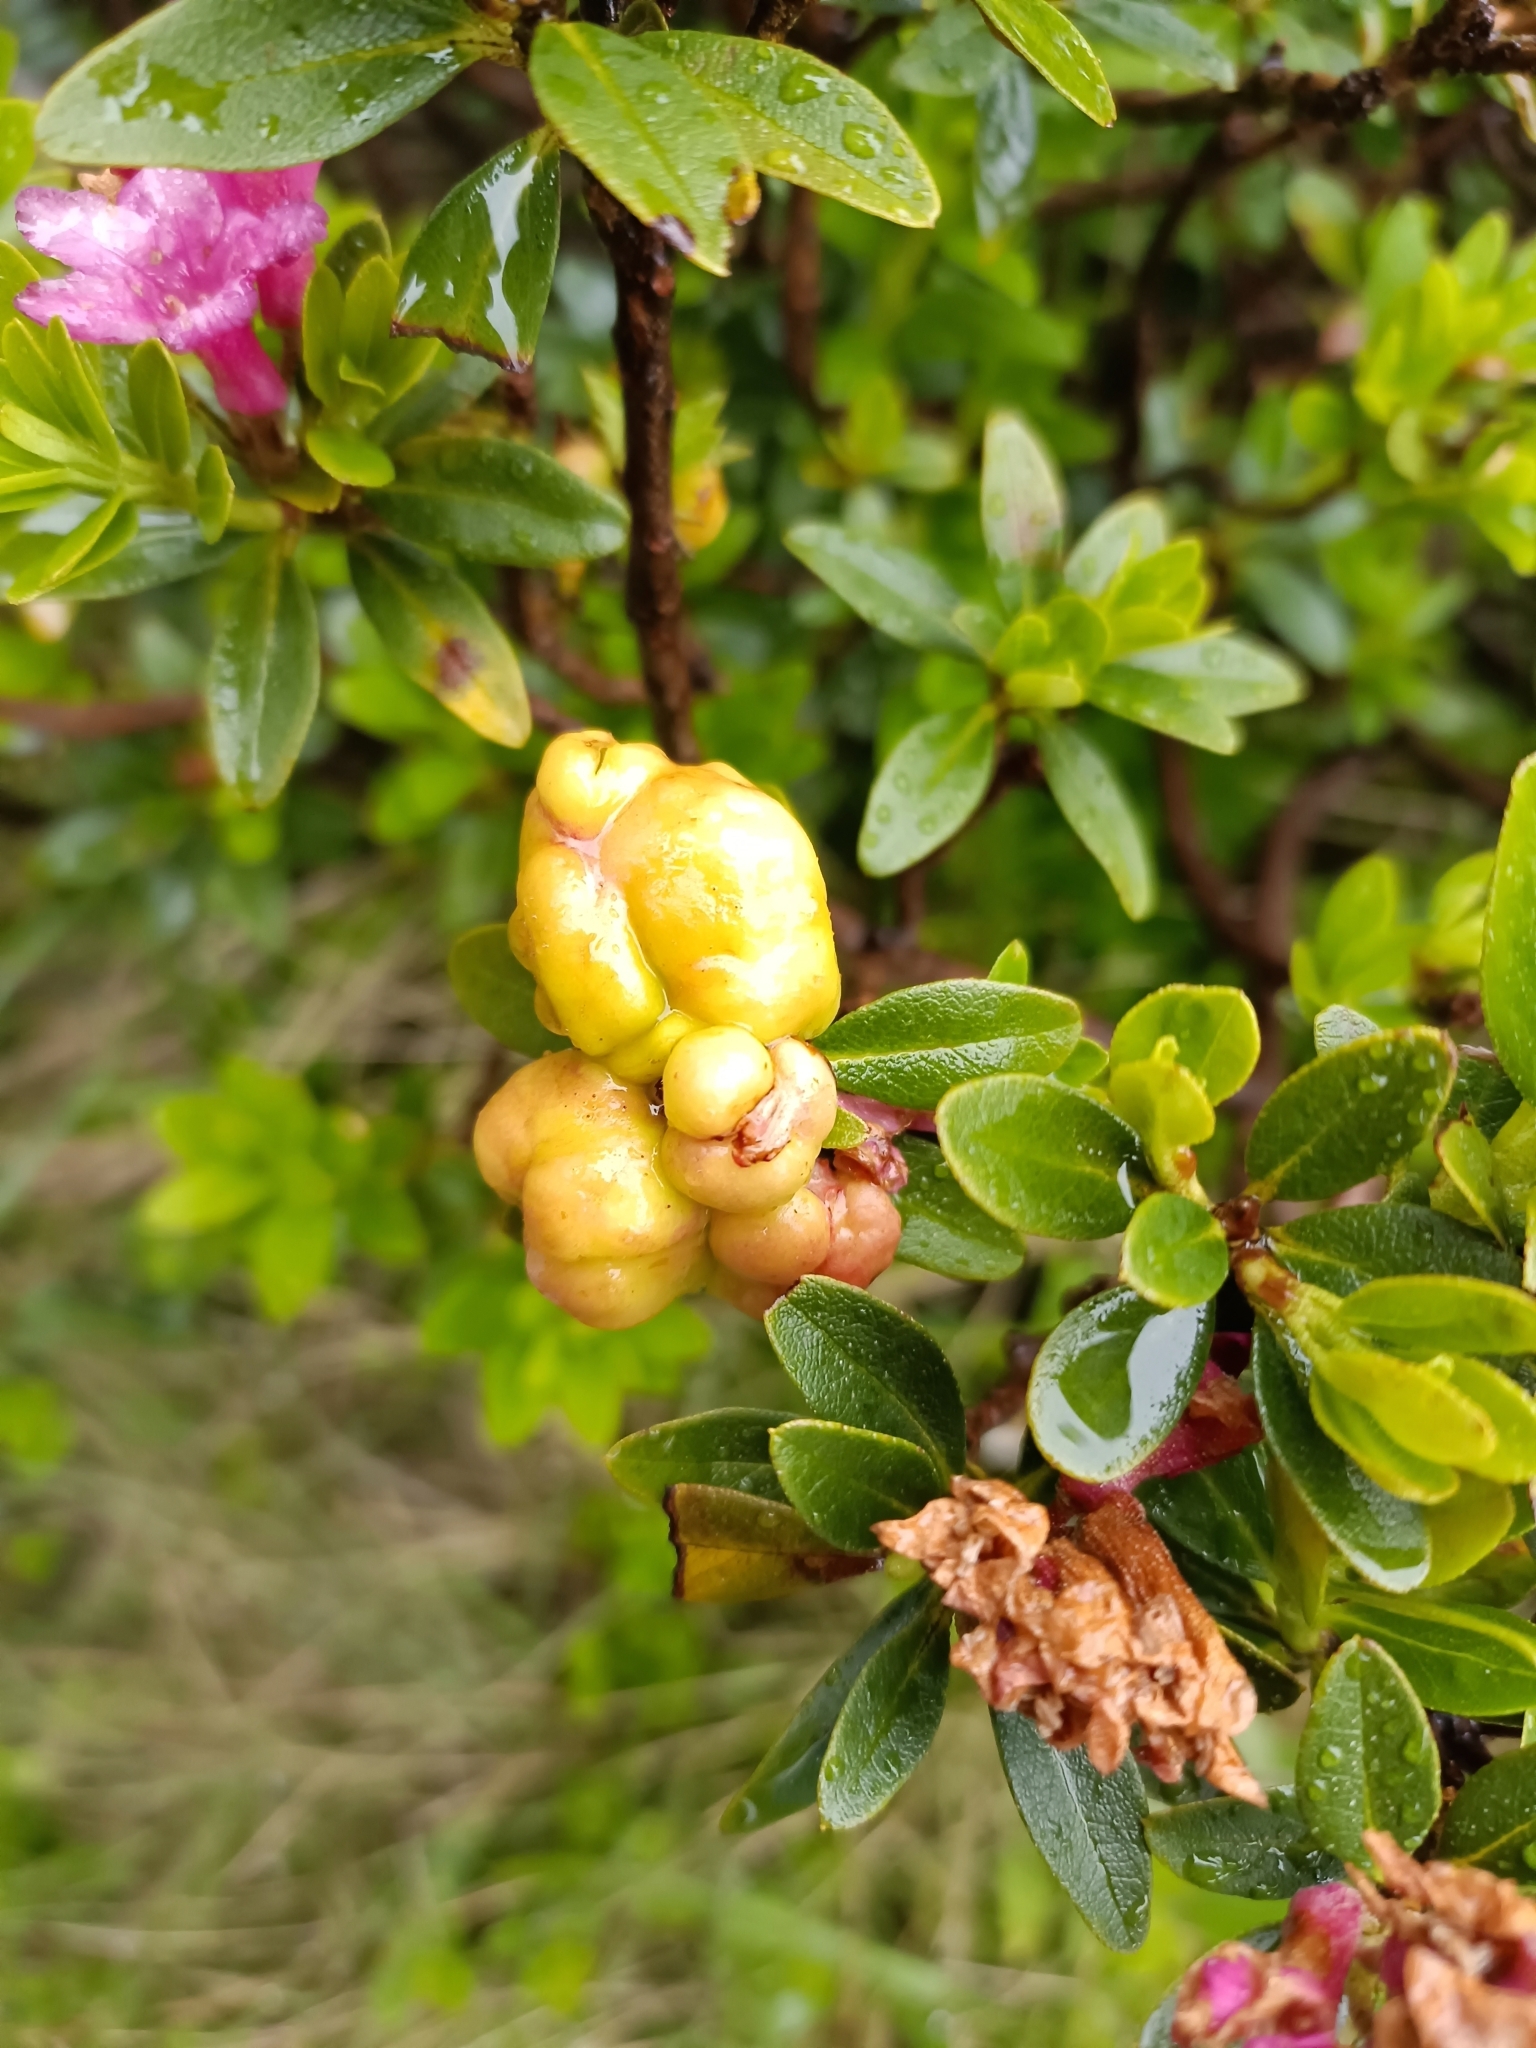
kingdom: Fungi
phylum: Basidiomycota
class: Exobasidiomycetes
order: Exobasidiales
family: Exobasidiaceae
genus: Exobasidium
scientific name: Exobasidium rhododendri
